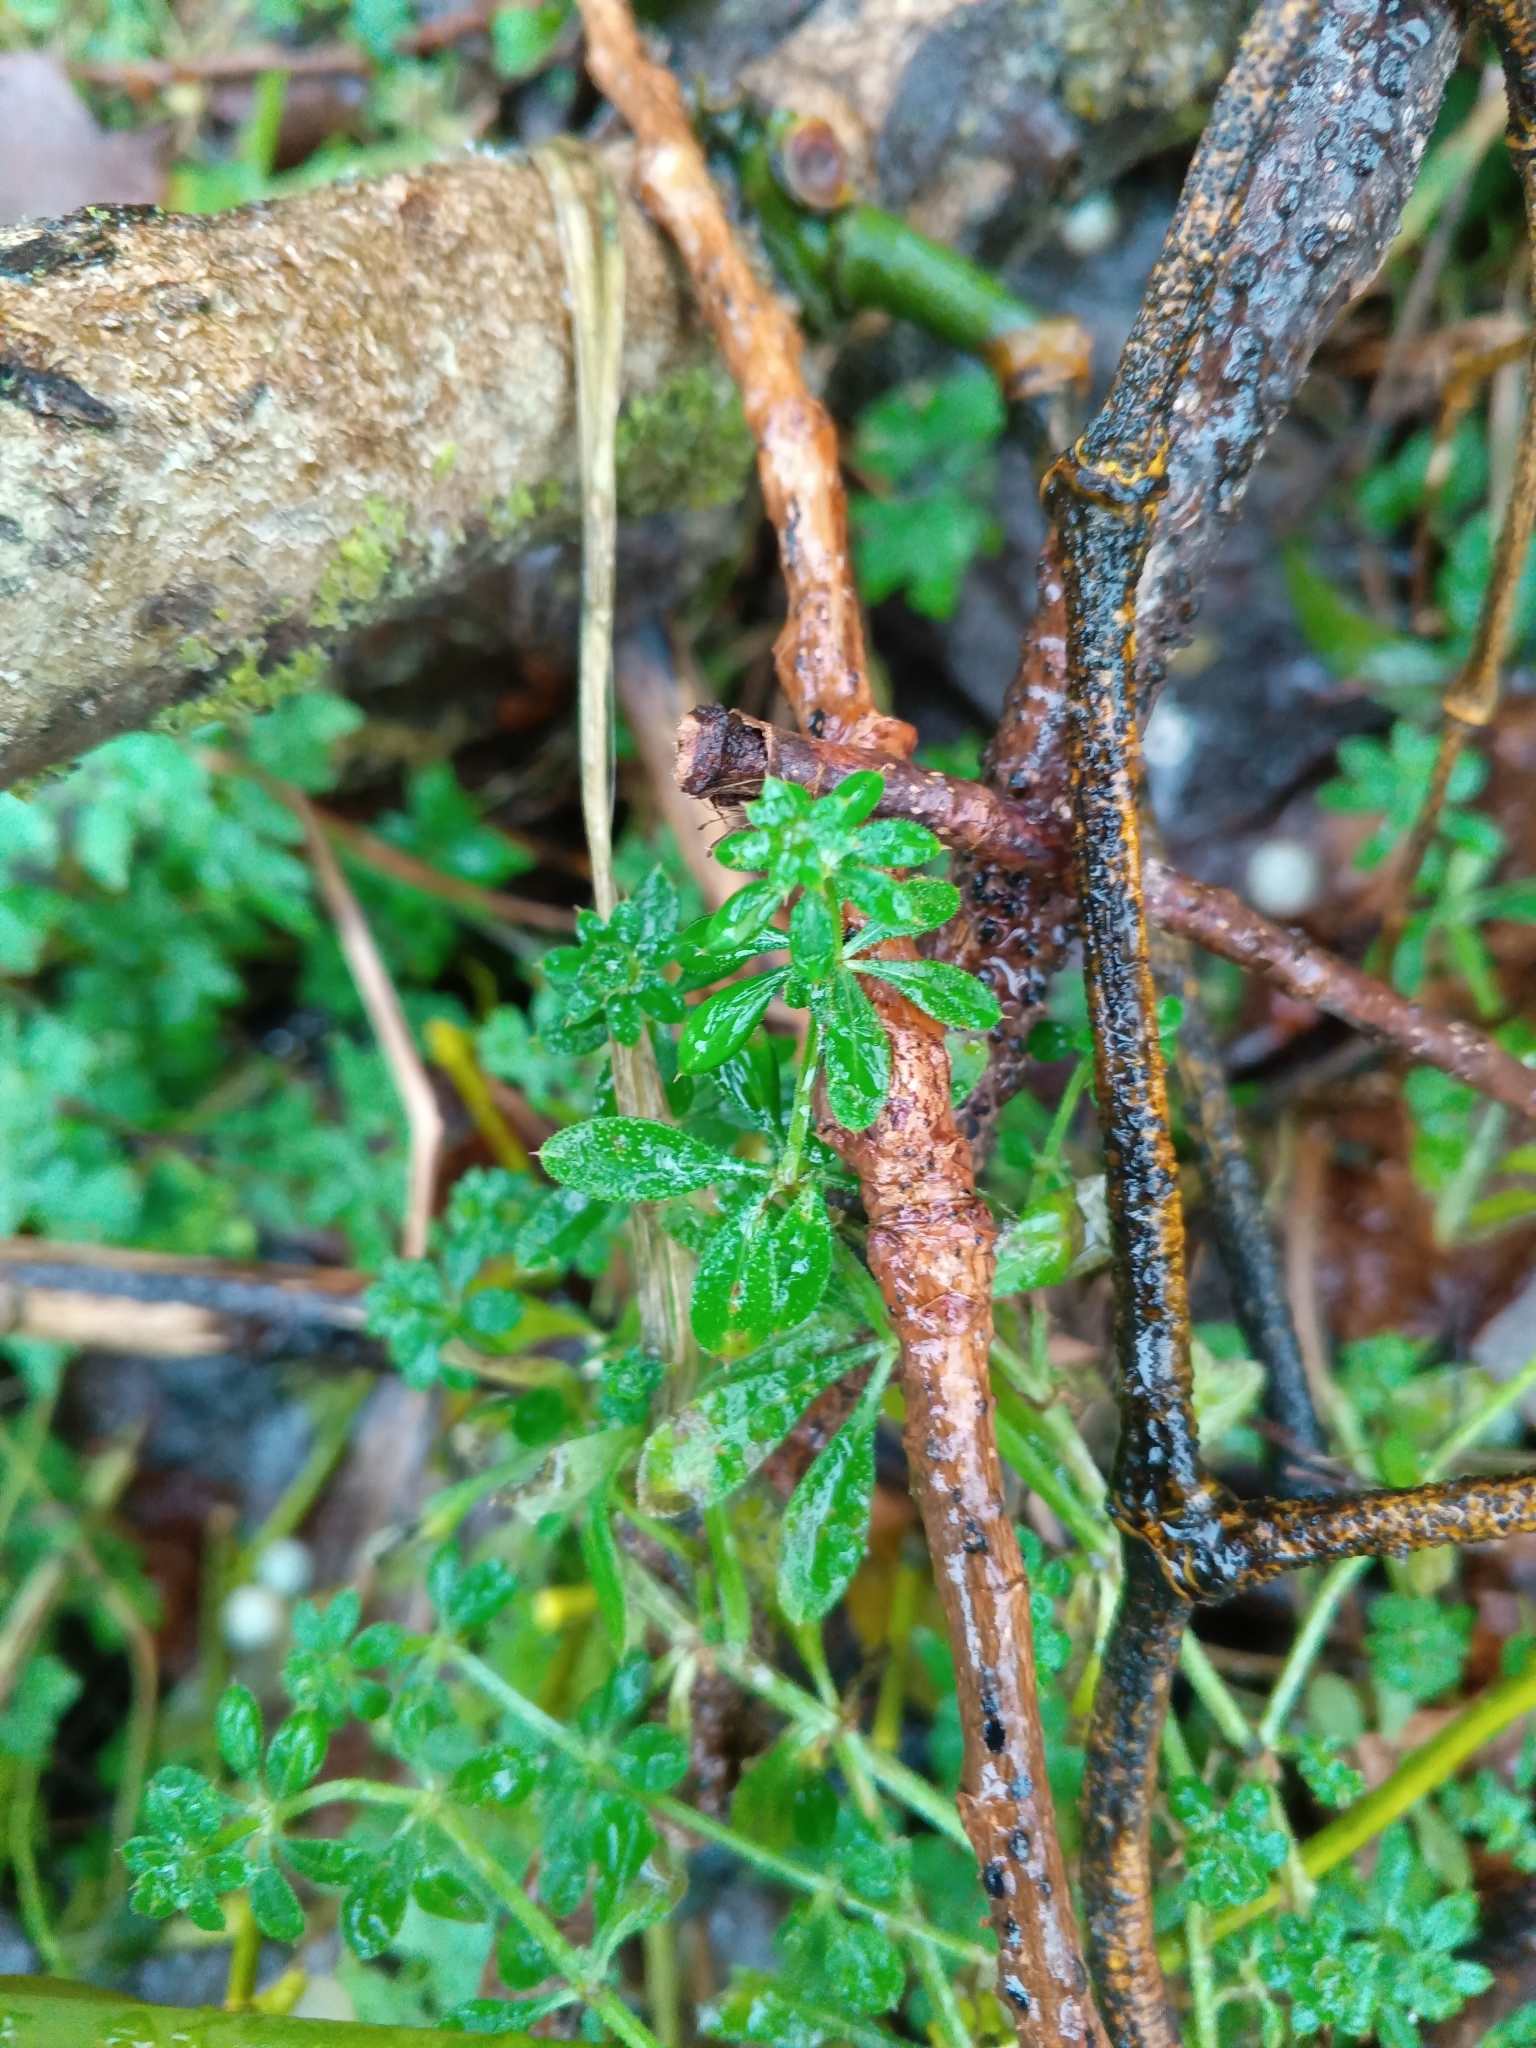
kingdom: Plantae
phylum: Tracheophyta
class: Magnoliopsida
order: Gentianales
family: Rubiaceae
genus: Galium
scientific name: Galium aparine
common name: Cleavers
